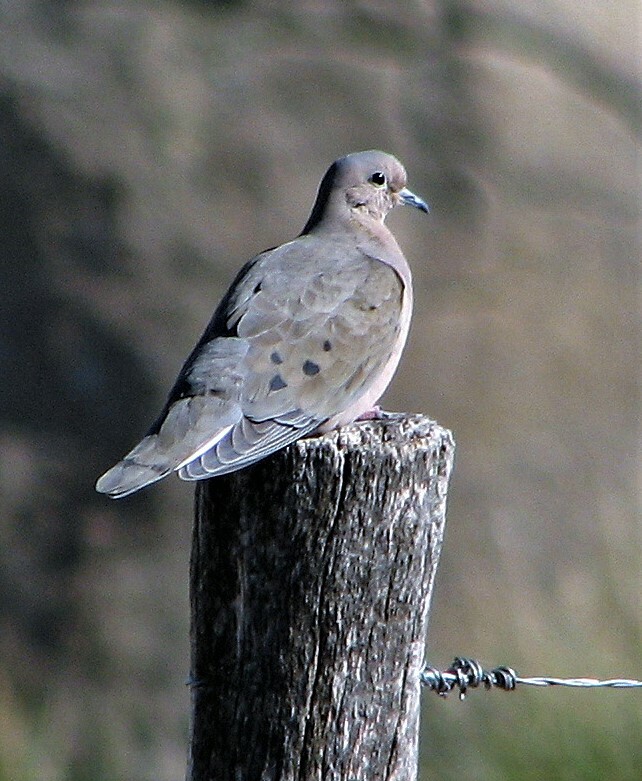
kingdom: Animalia
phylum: Chordata
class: Aves
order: Columbiformes
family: Columbidae
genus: Zenaida
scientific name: Zenaida auriculata
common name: Eared dove
